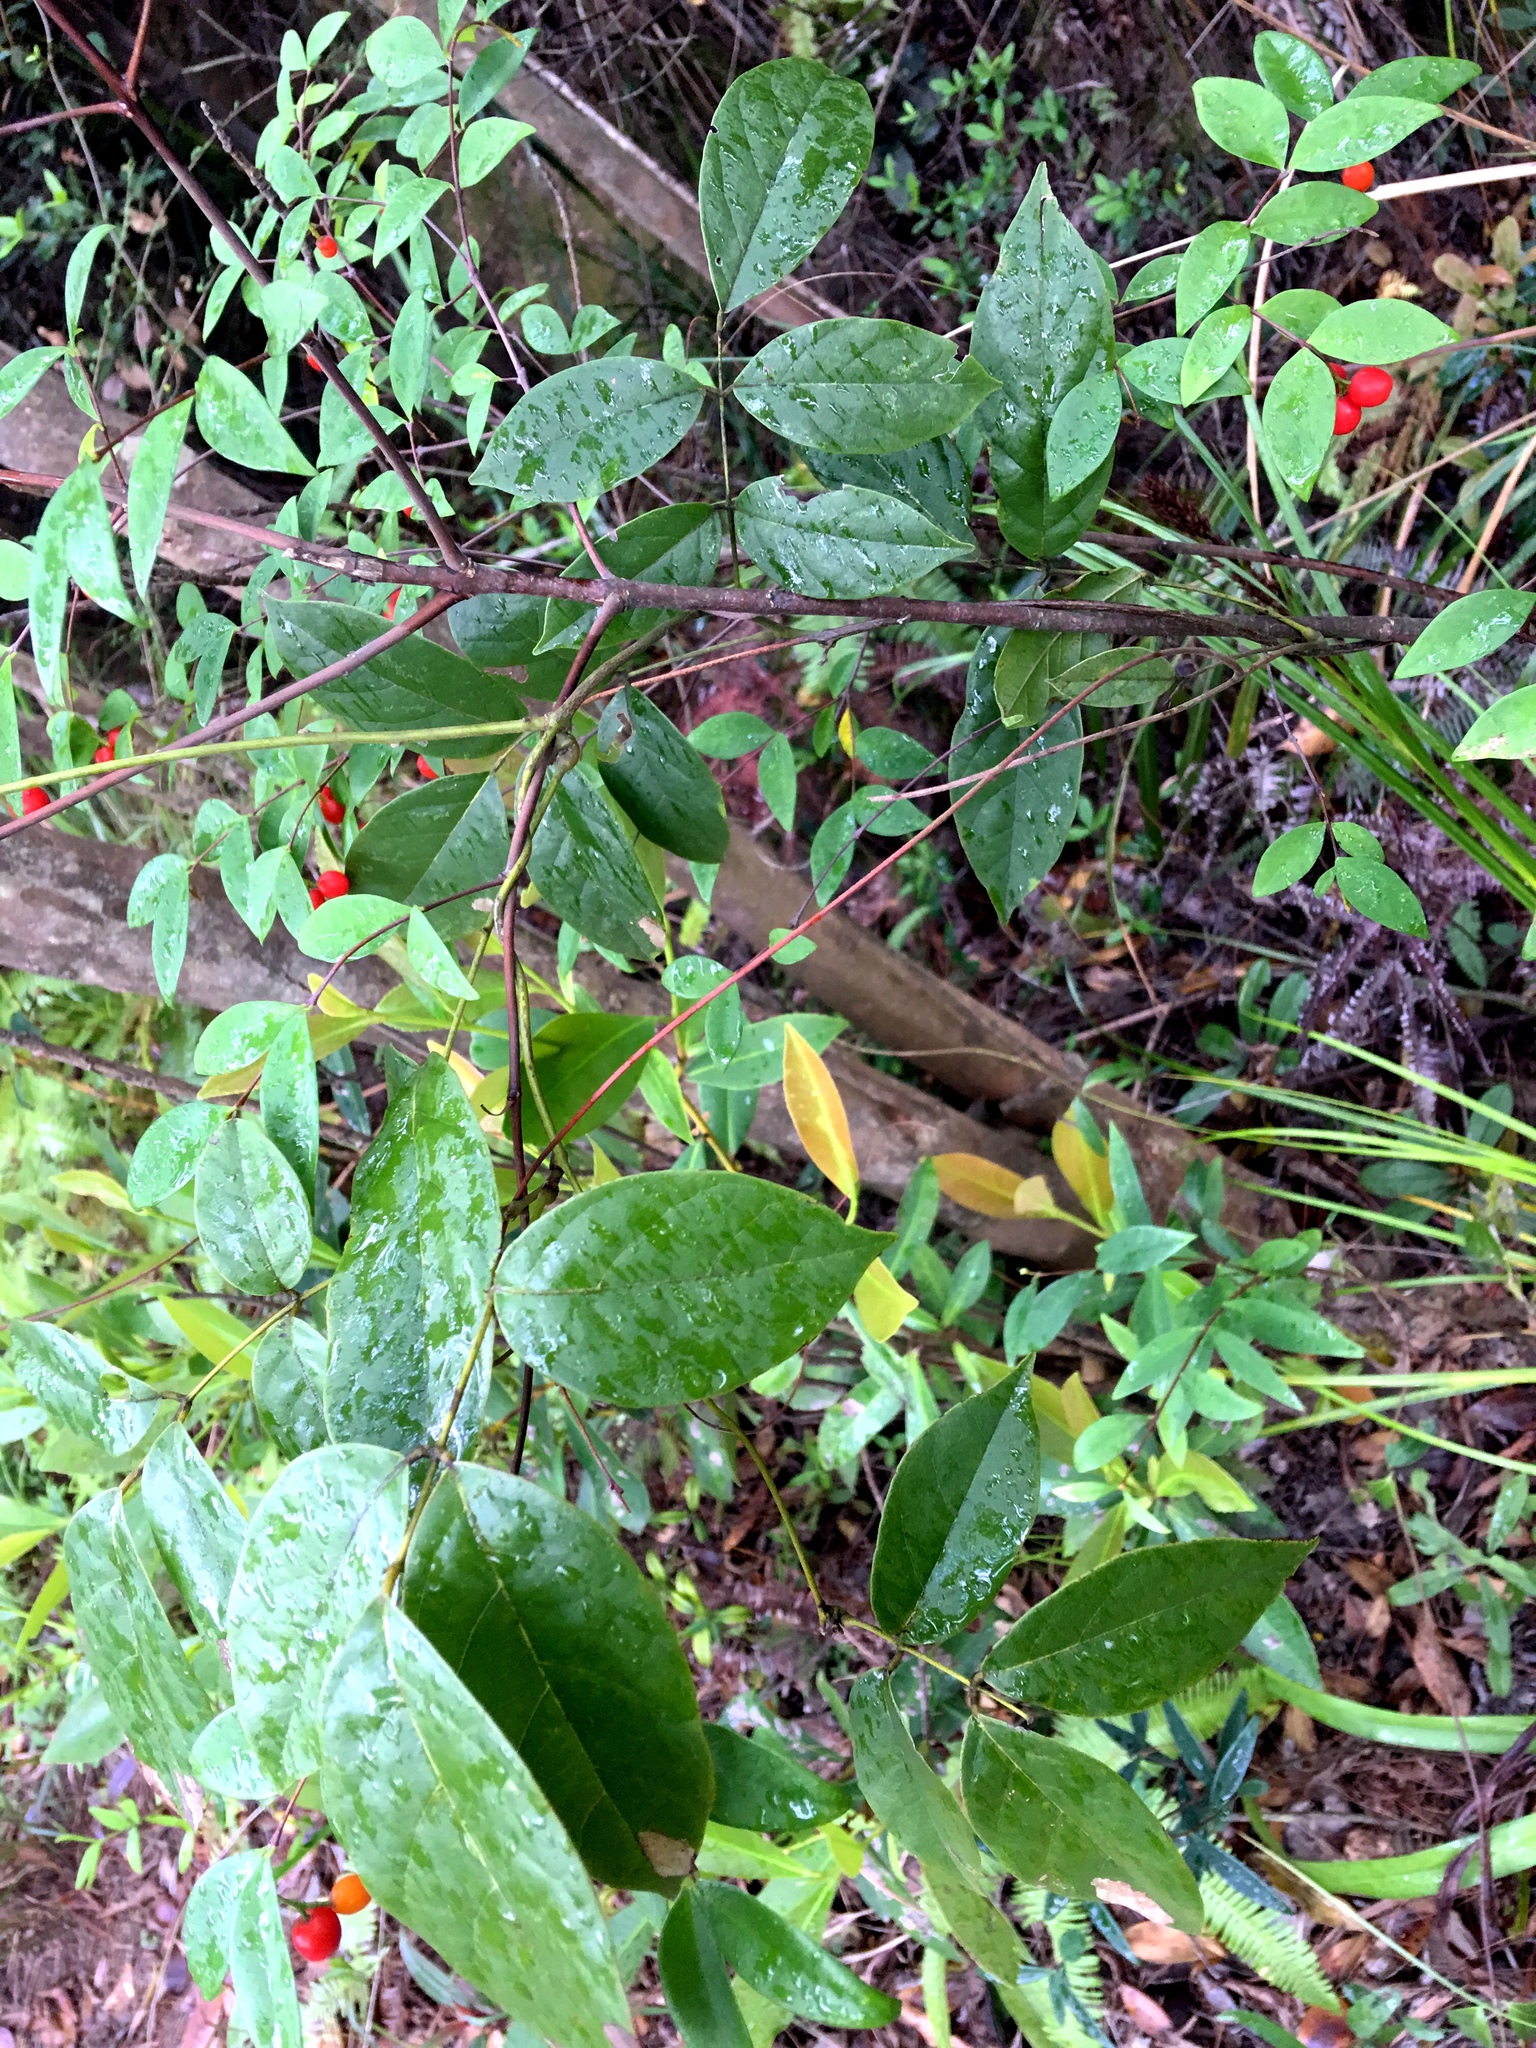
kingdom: Plantae
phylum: Tracheophyta
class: Magnoliopsida
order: Malvales
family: Thymelaeaceae
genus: Wikstroemia
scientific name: Wikstroemia nutans
